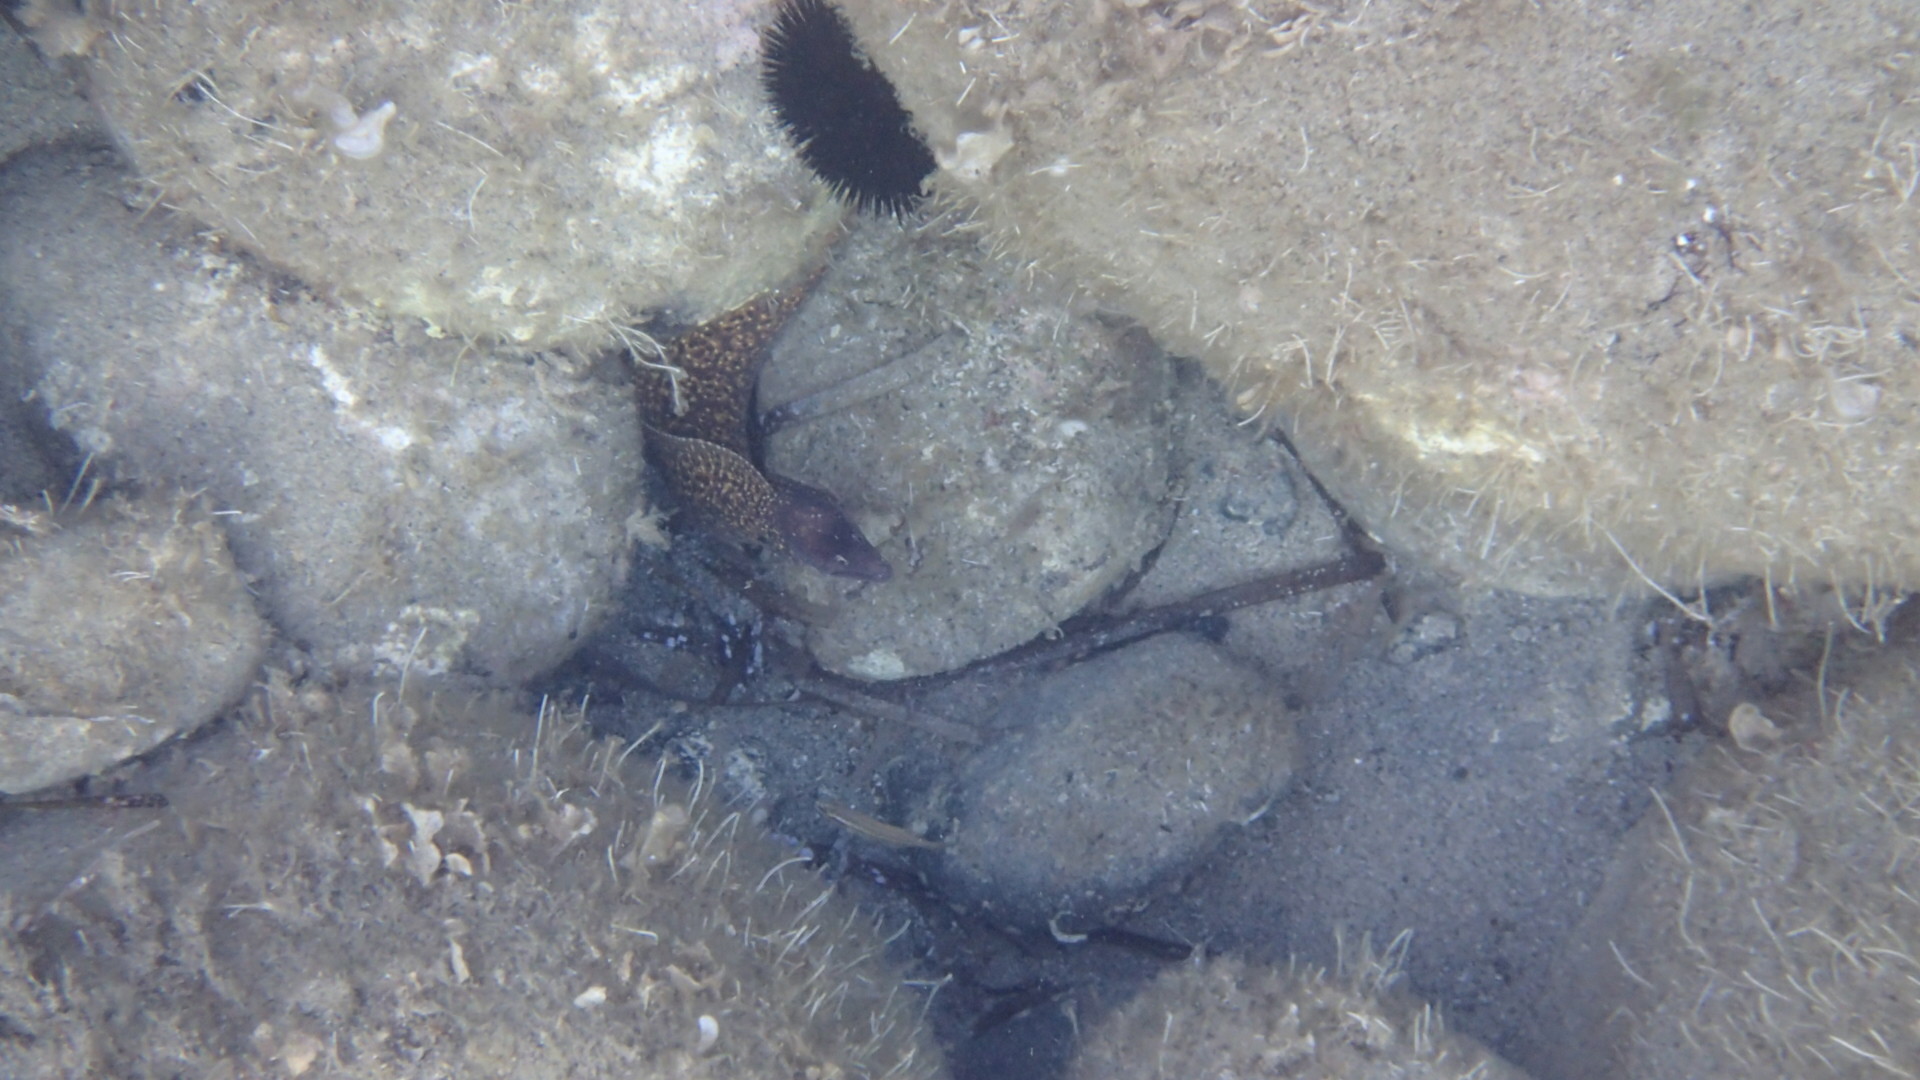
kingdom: Animalia
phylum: Chordata
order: Anguilliformes
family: Muraenidae
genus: Muraena
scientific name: Muraena helena
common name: Mediterranean moray
